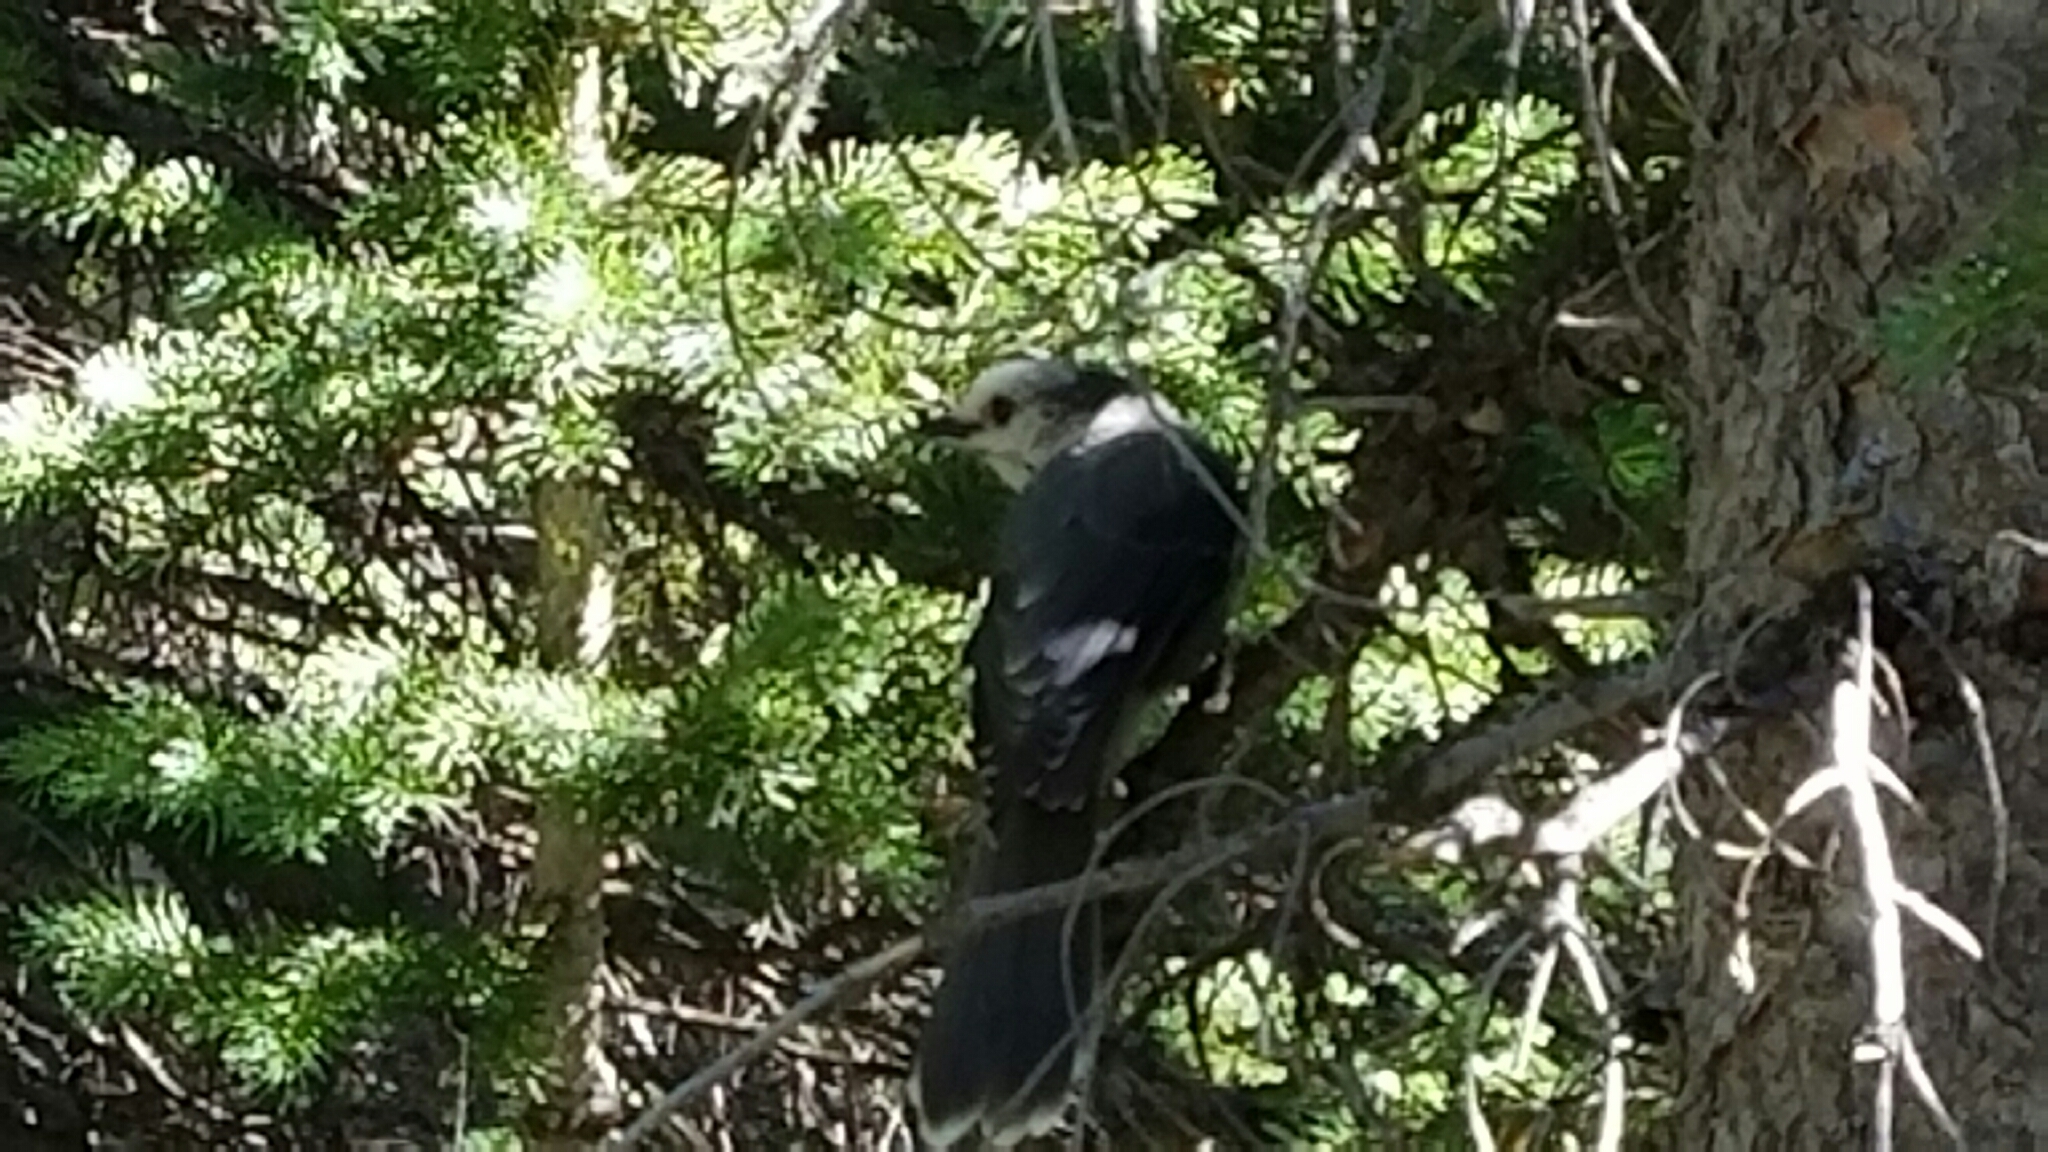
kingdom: Animalia
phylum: Chordata
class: Aves
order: Passeriformes
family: Corvidae
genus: Perisoreus
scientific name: Perisoreus canadensis
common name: Gray jay
